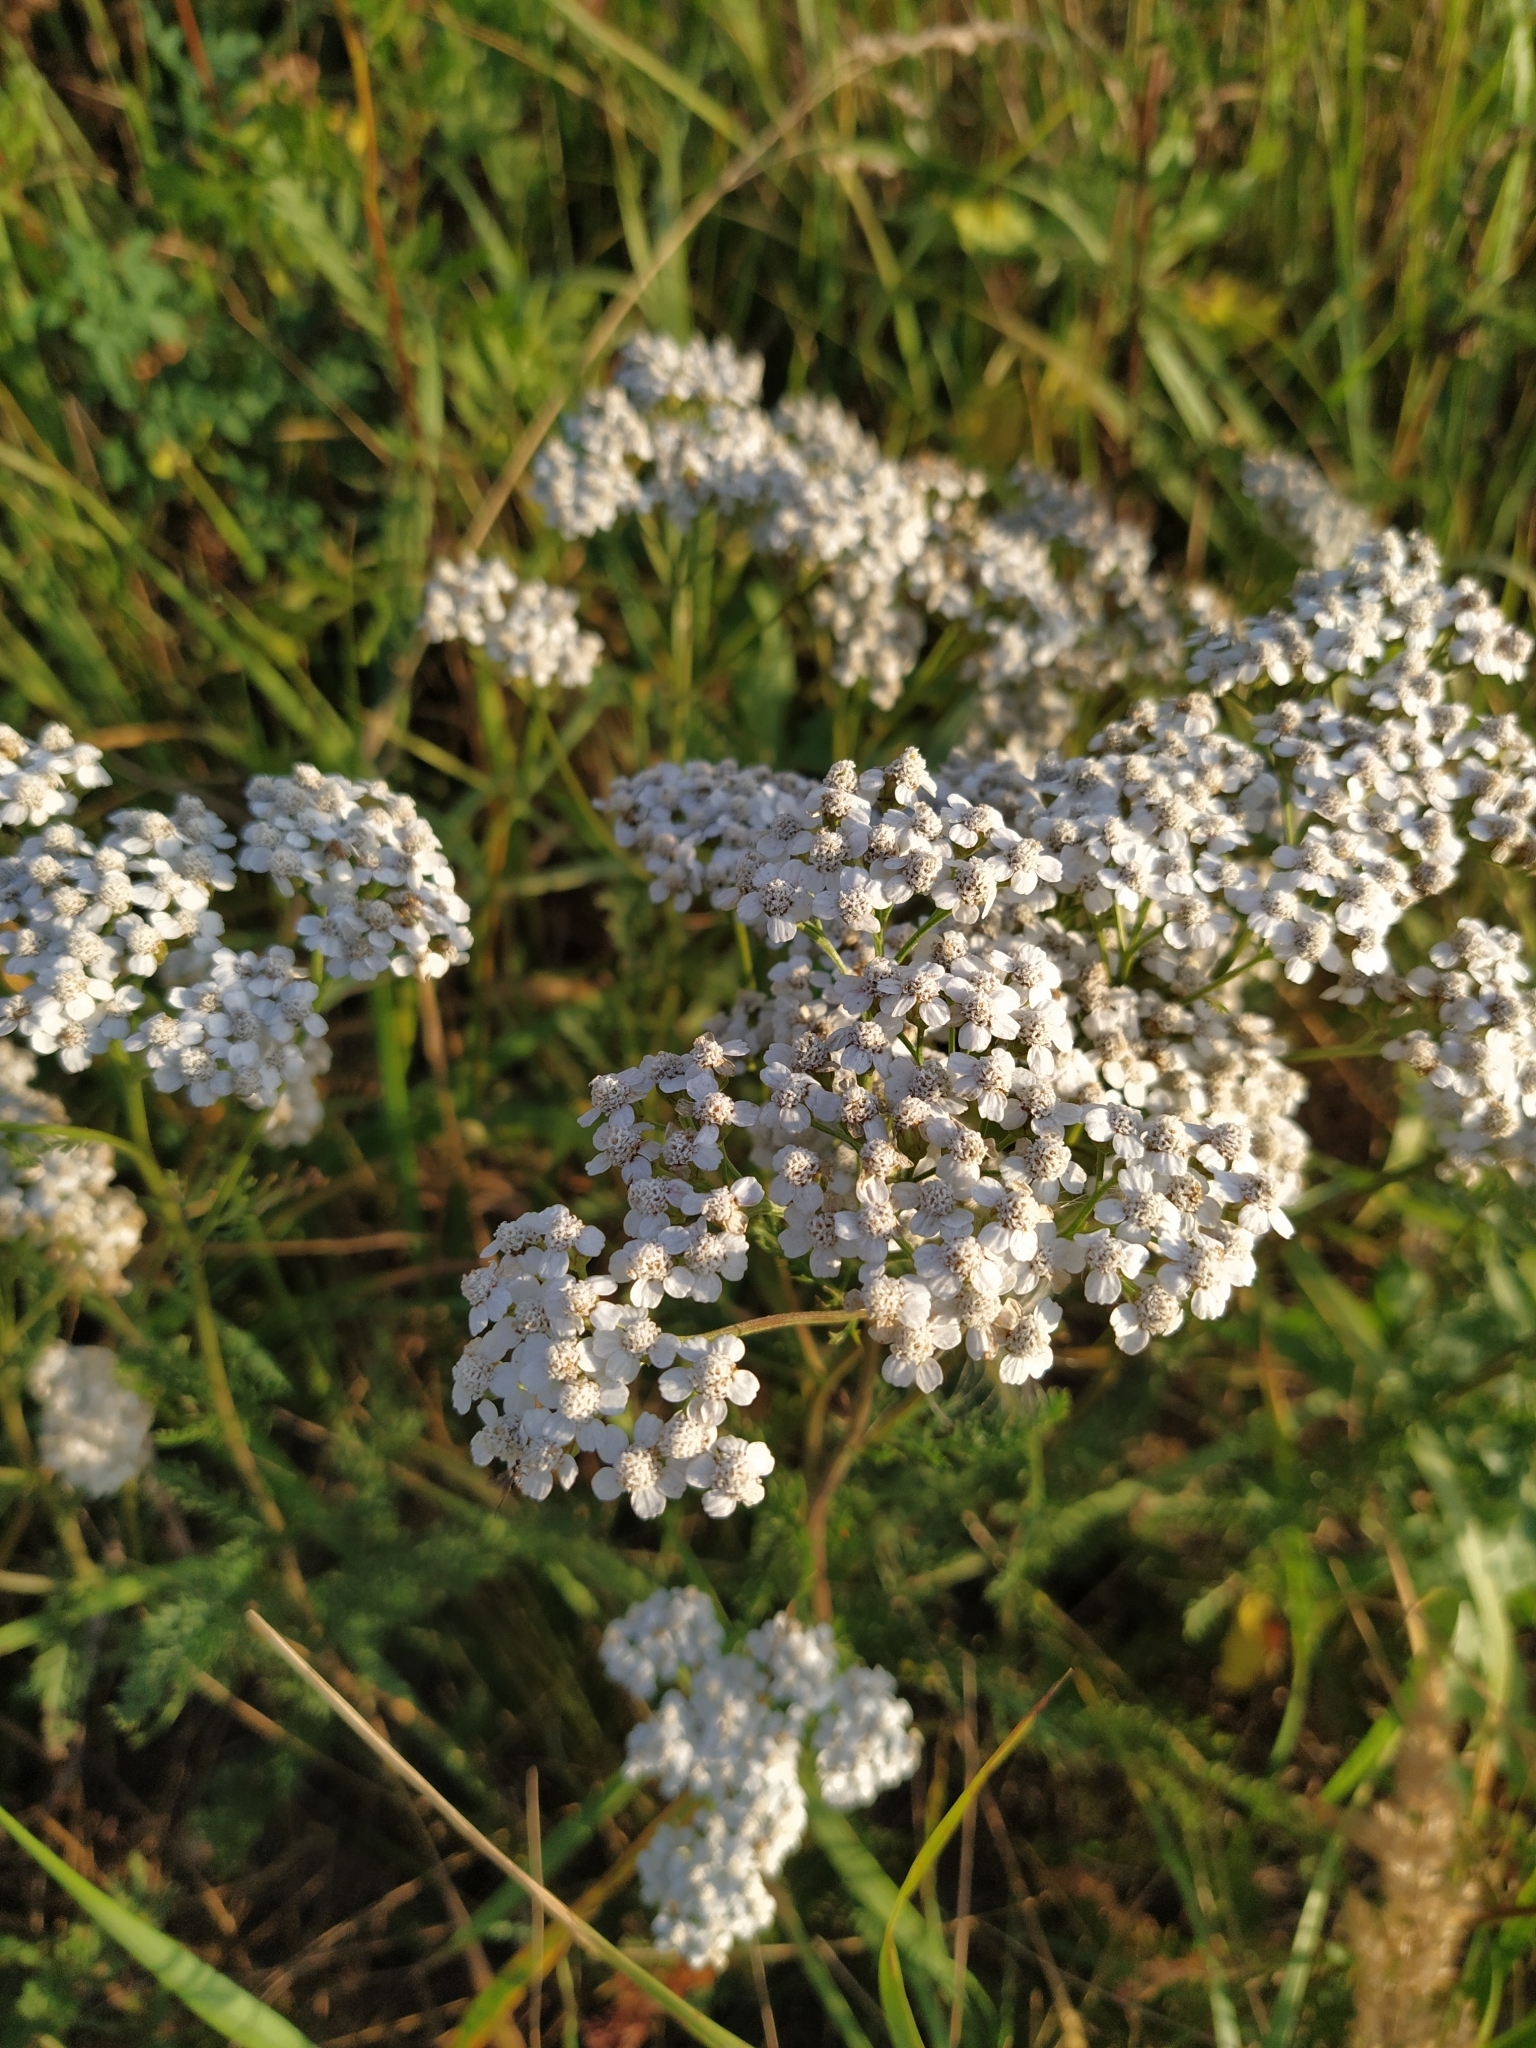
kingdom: Plantae
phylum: Tracheophyta
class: Magnoliopsida
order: Asterales
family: Asteraceae
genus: Achillea
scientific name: Achillea millefolium
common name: Yarrow
